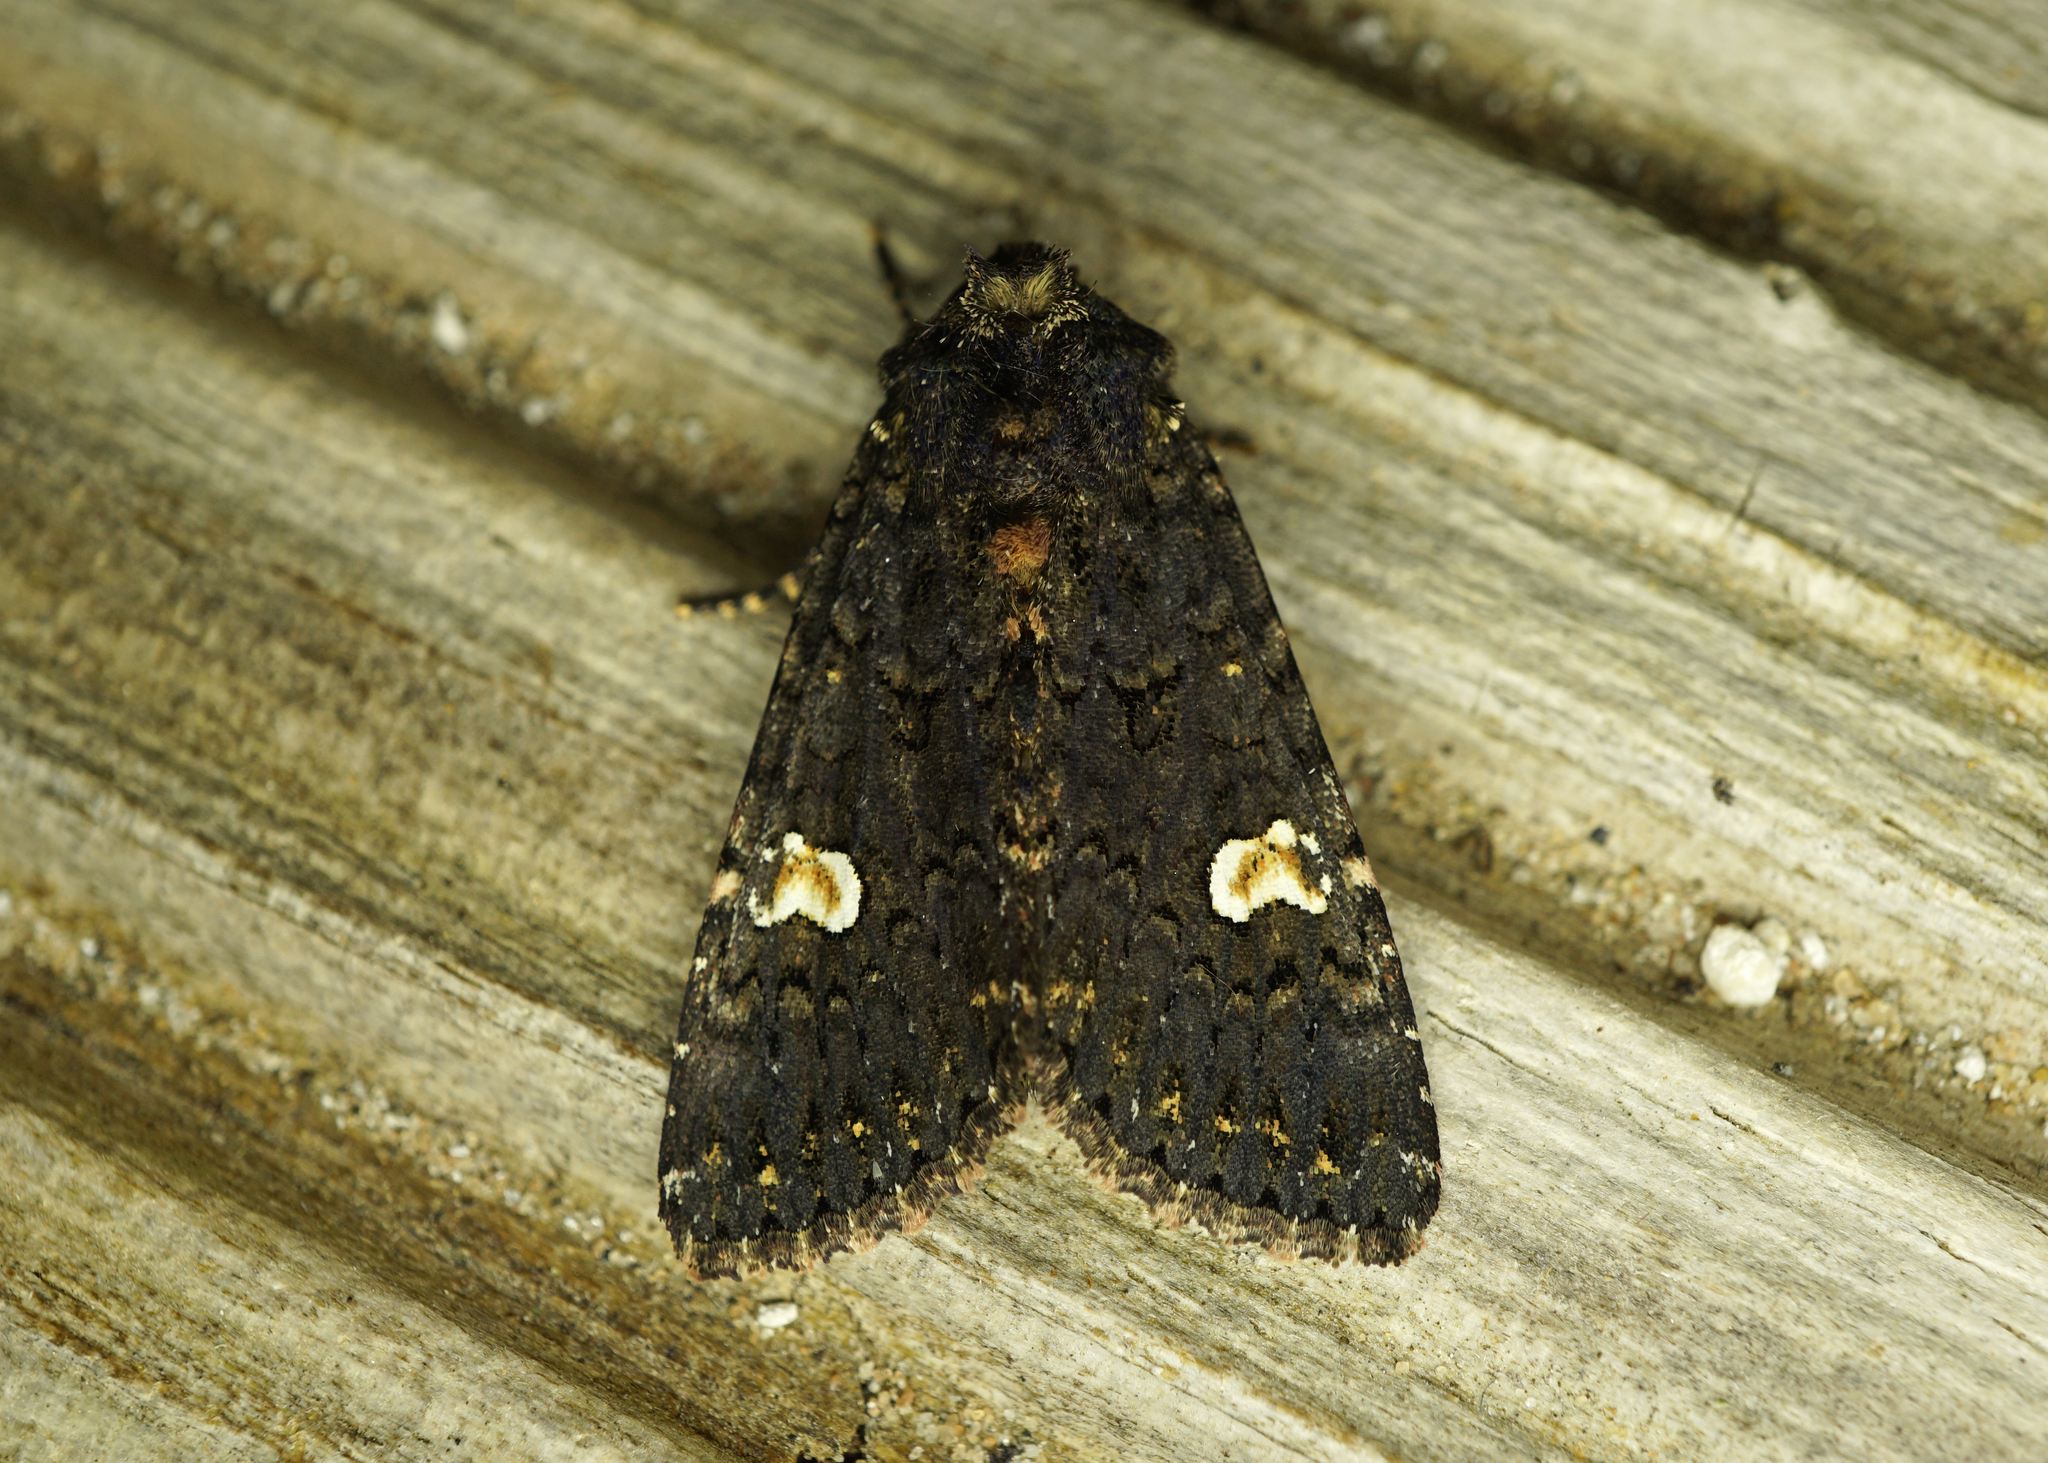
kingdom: Animalia
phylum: Arthropoda
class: Insecta
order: Lepidoptera
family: Noctuidae
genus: Melanchra
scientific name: Melanchra persicariae
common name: Dot moth
